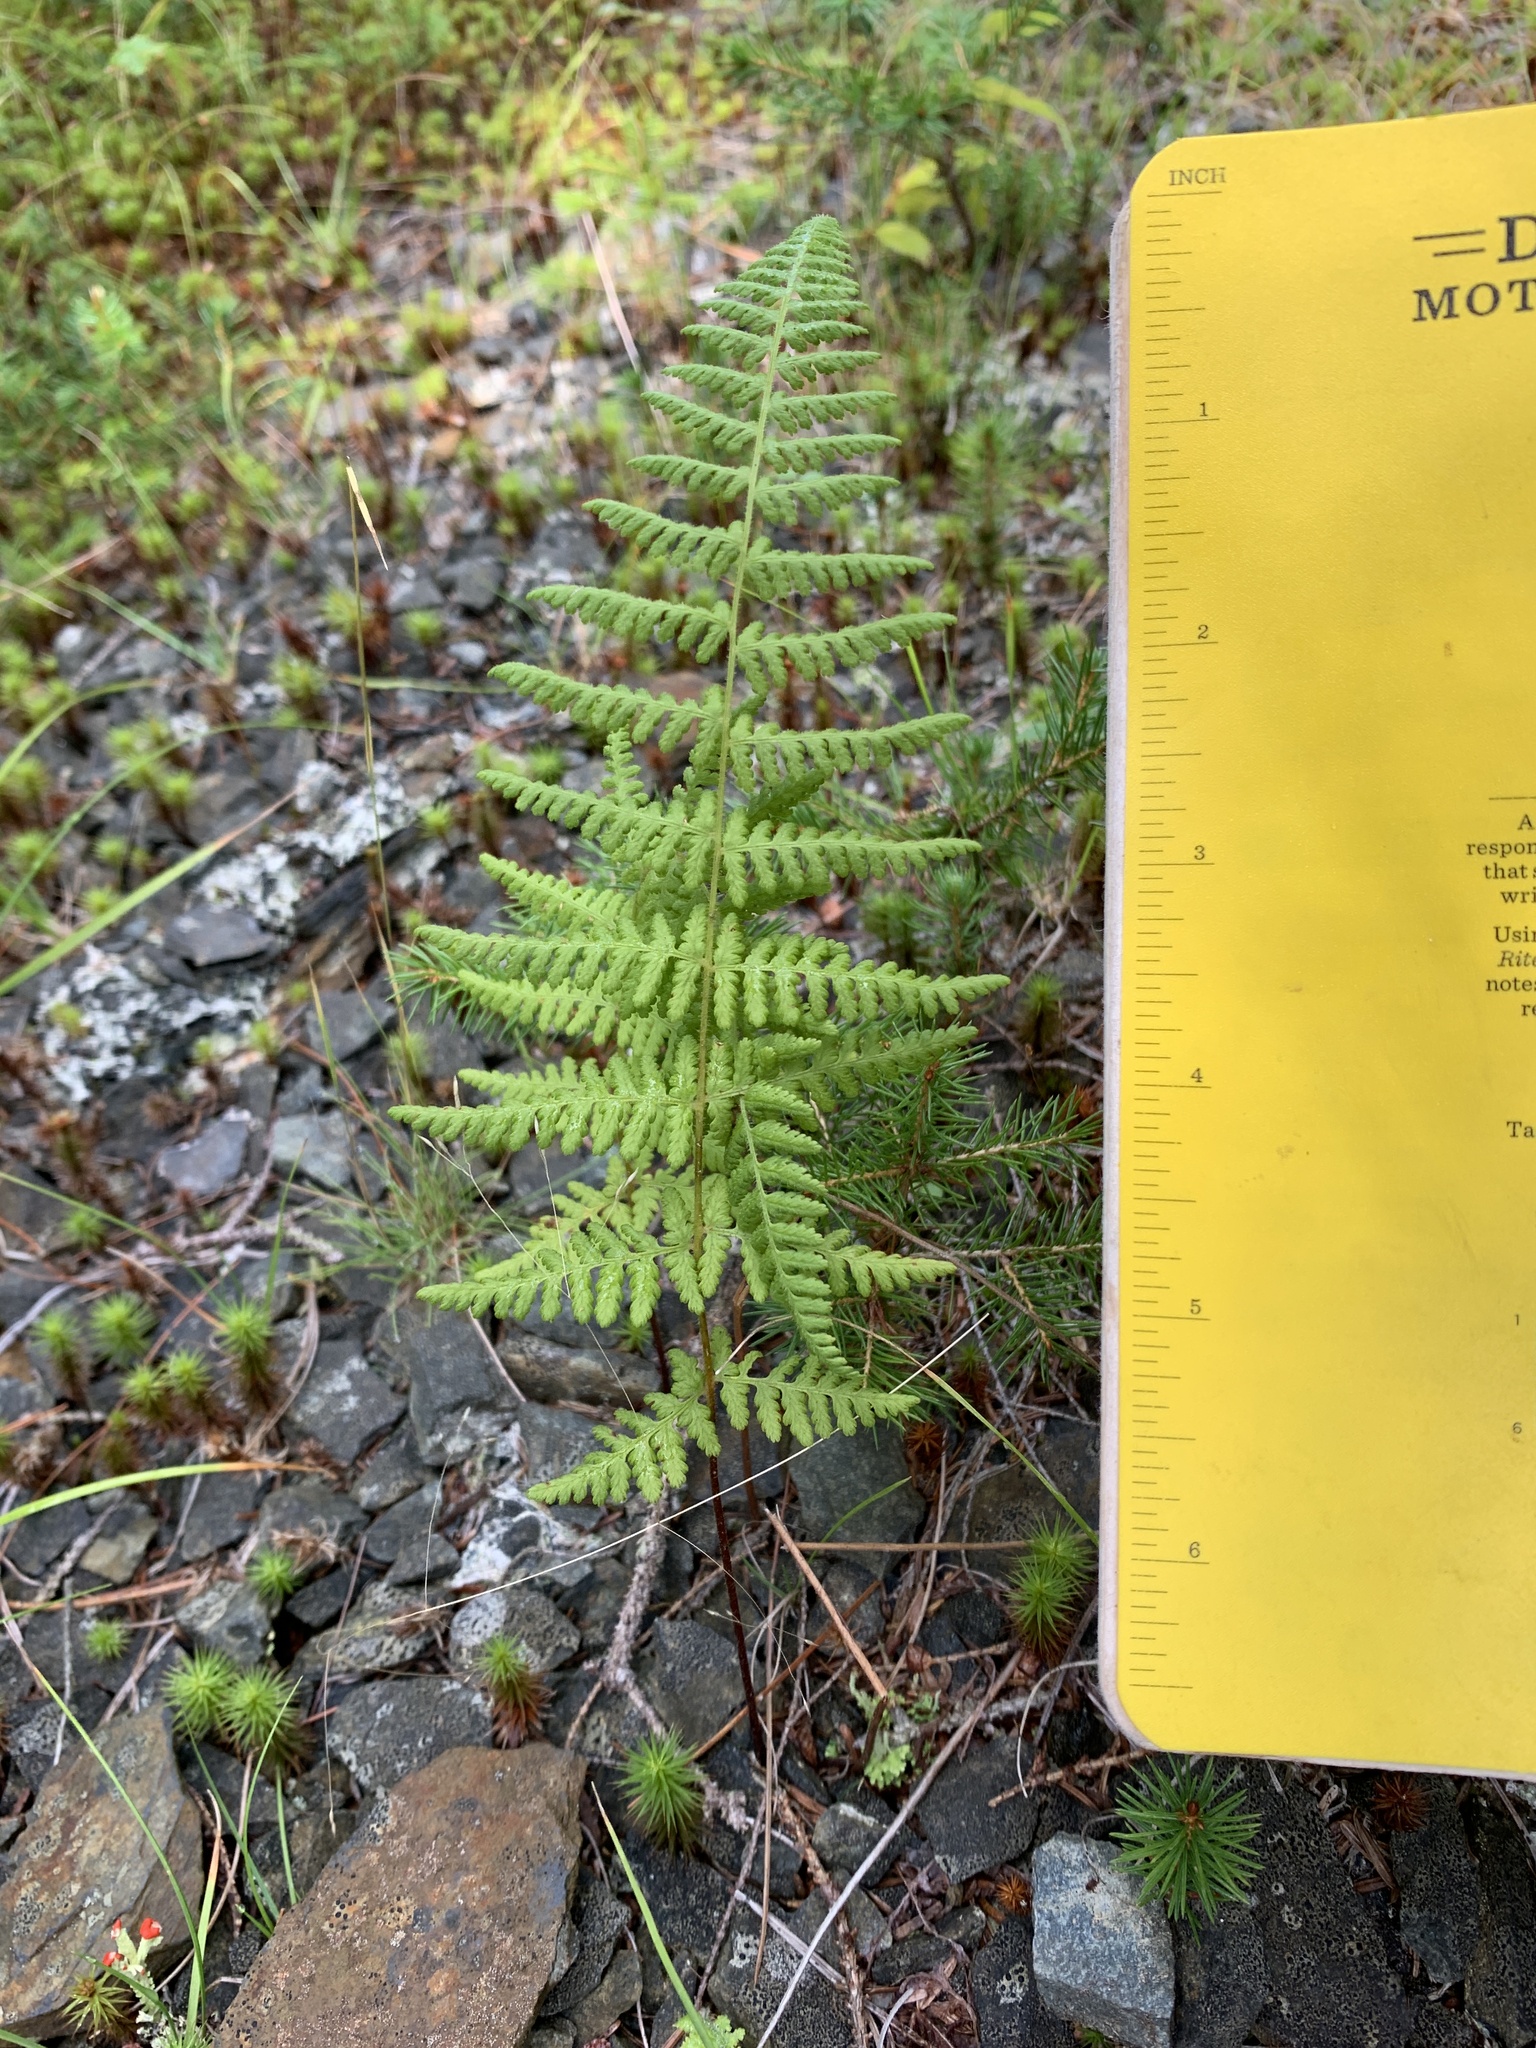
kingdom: Plantae
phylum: Tracheophyta
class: Polypodiopsida
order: Polypodiales
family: Dennstaedtiaceae
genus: Sitobolium
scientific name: Sitobolium punctilobum
